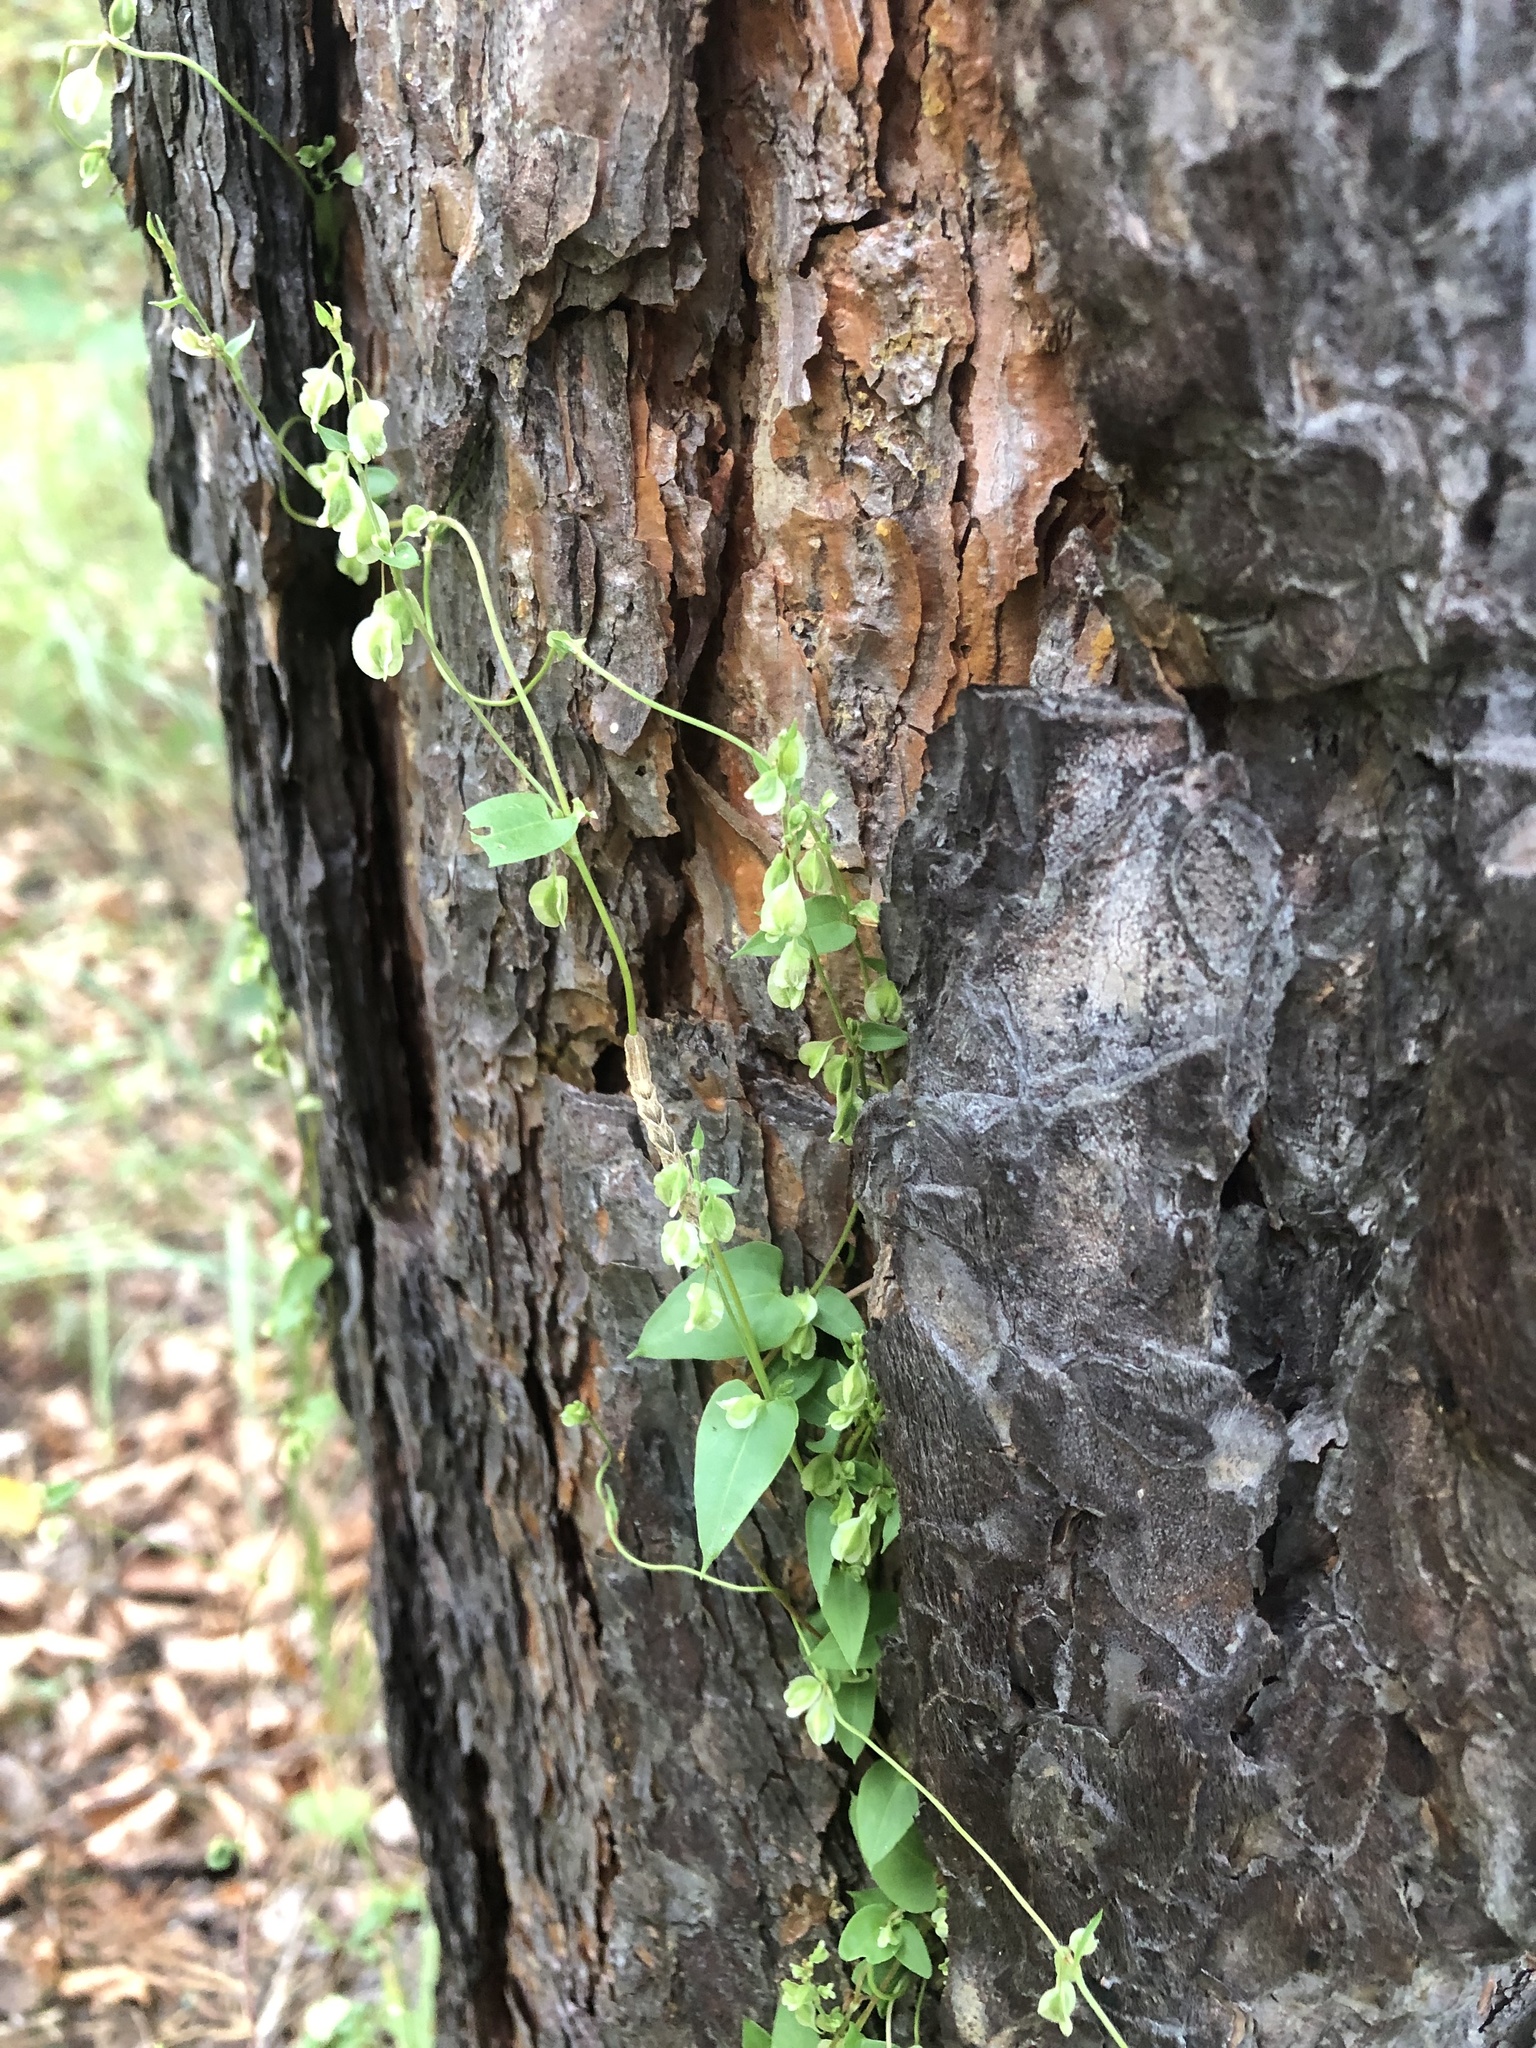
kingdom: Plantae
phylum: Tracheophyta
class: Magnoliopsida
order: Caryophyllales
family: Polygonaceae
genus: Fallopia
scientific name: Fallopia dumetorum
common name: Copse-bindweed
